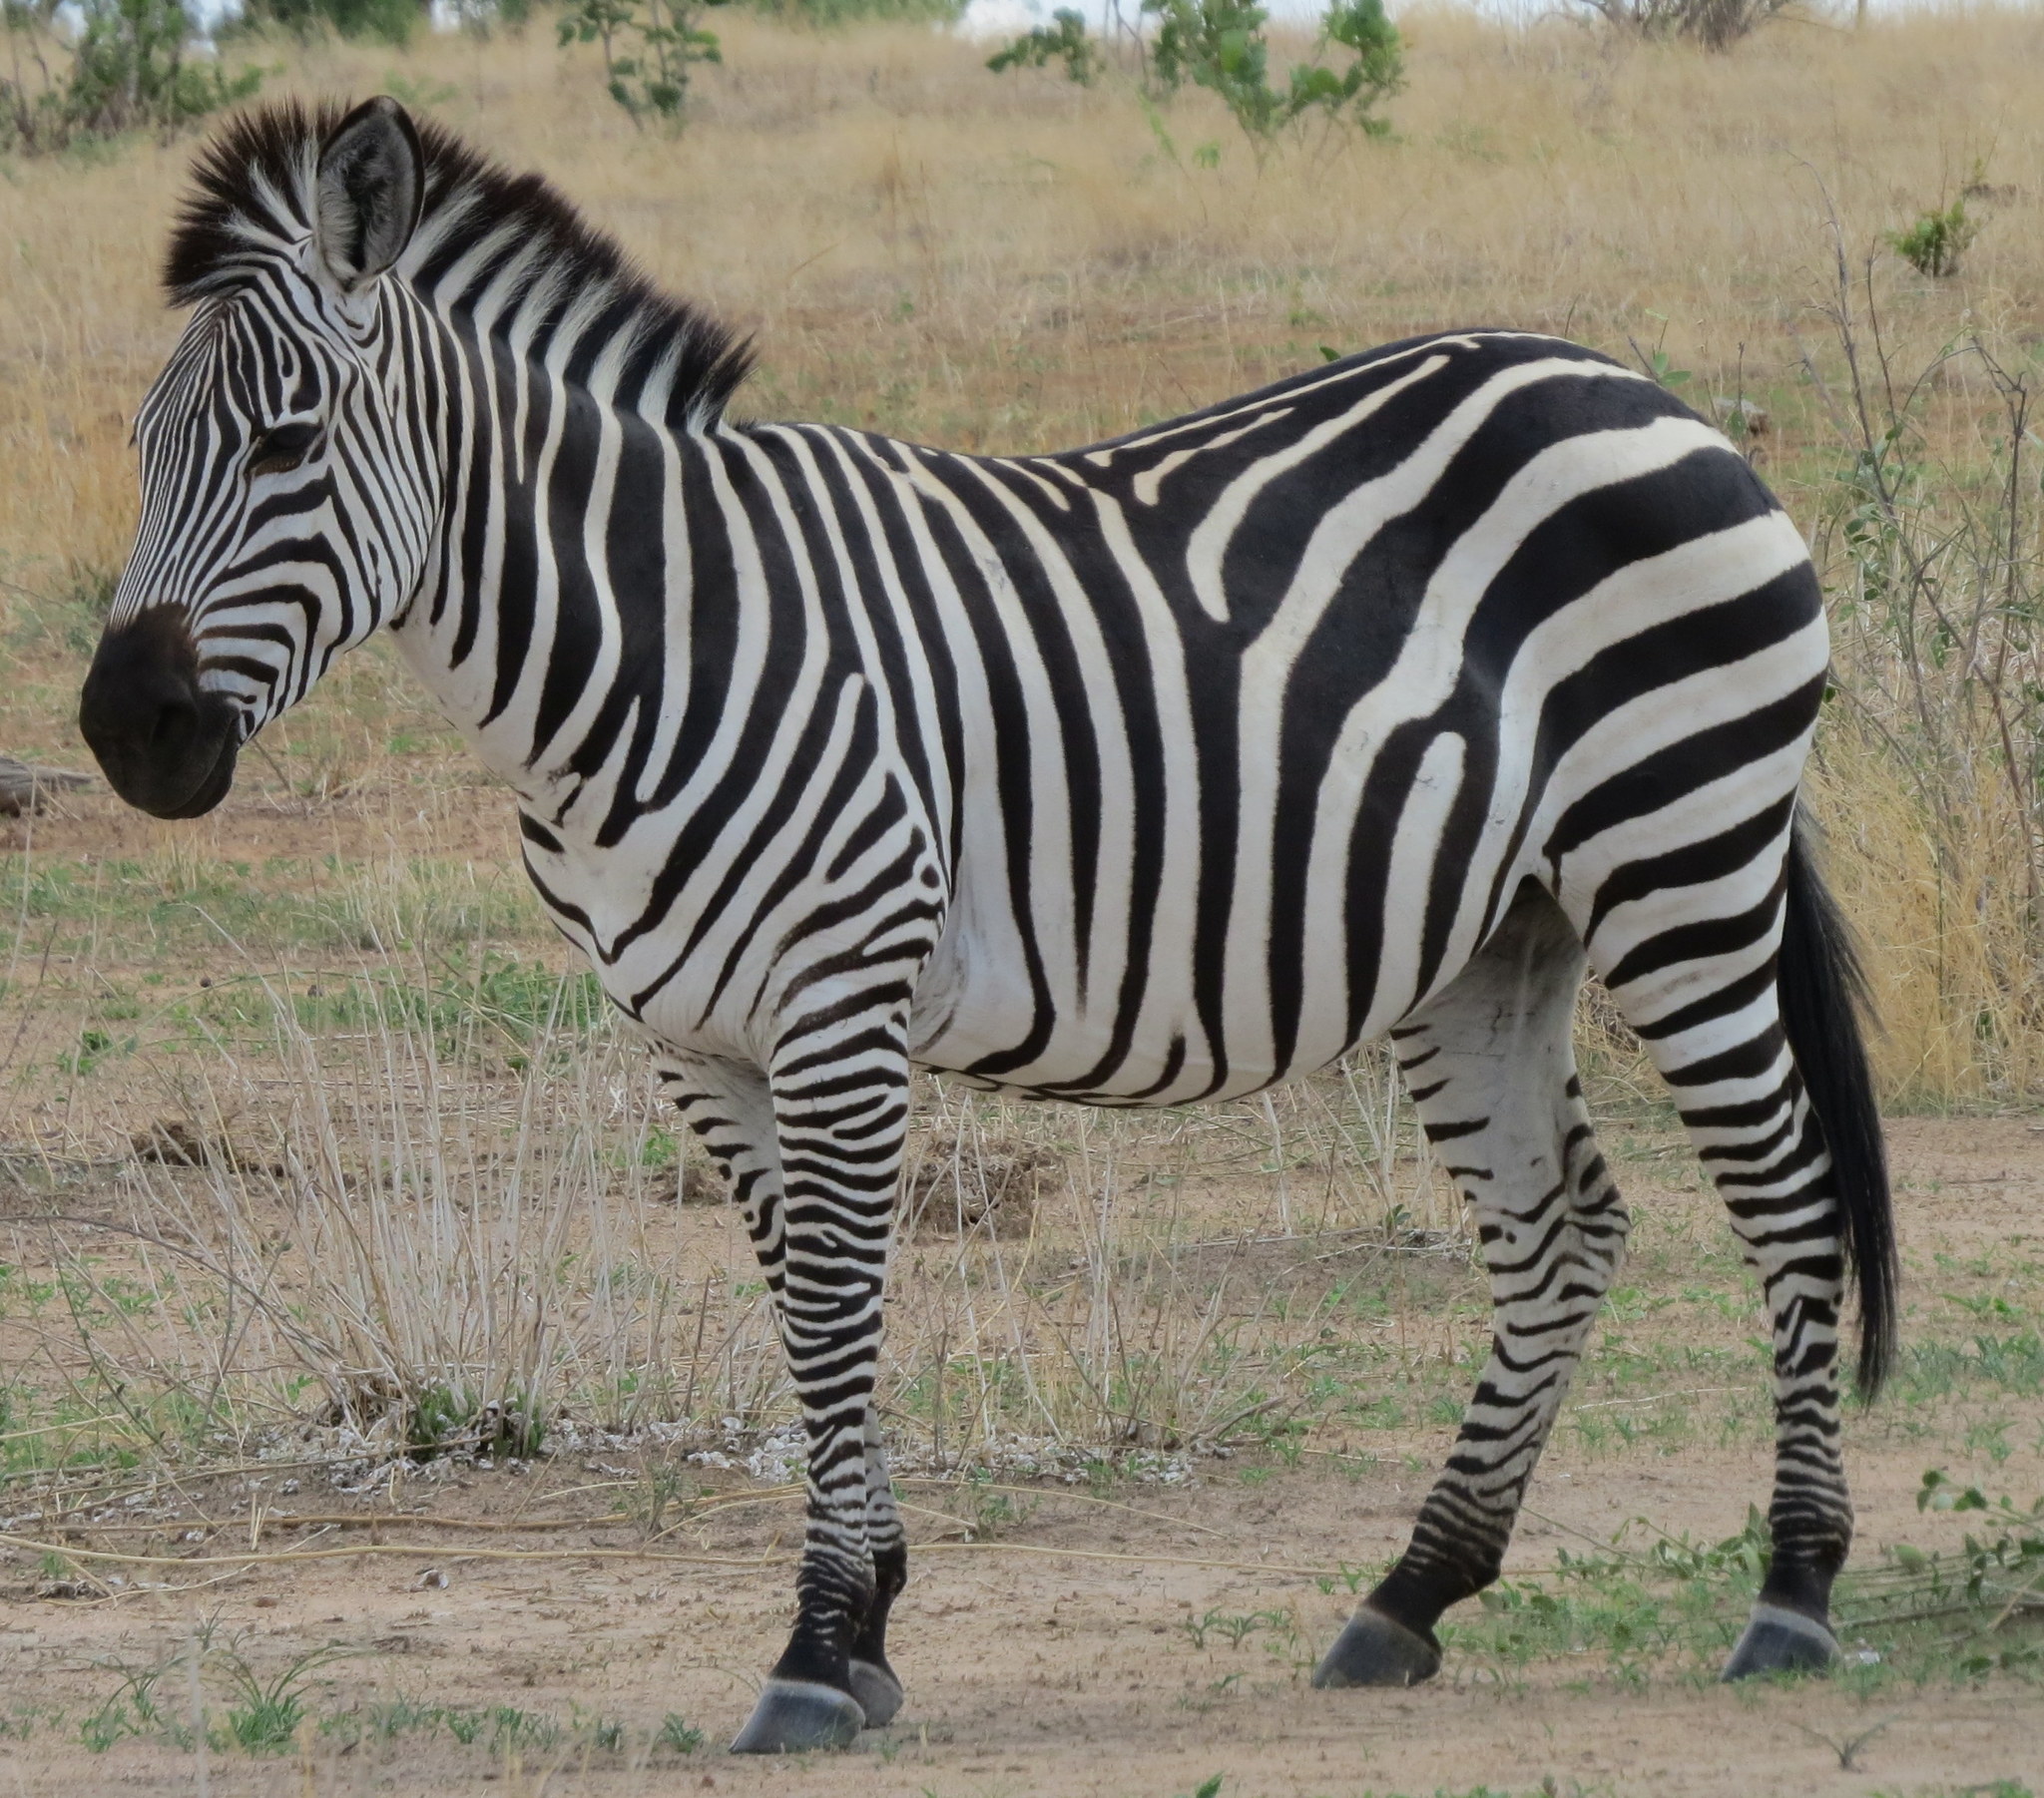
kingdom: Animalia
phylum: Chordata
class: Mammalia
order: Perissodactyla
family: Equidae
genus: Equus
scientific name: Equus quagga
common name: Plains zebra
